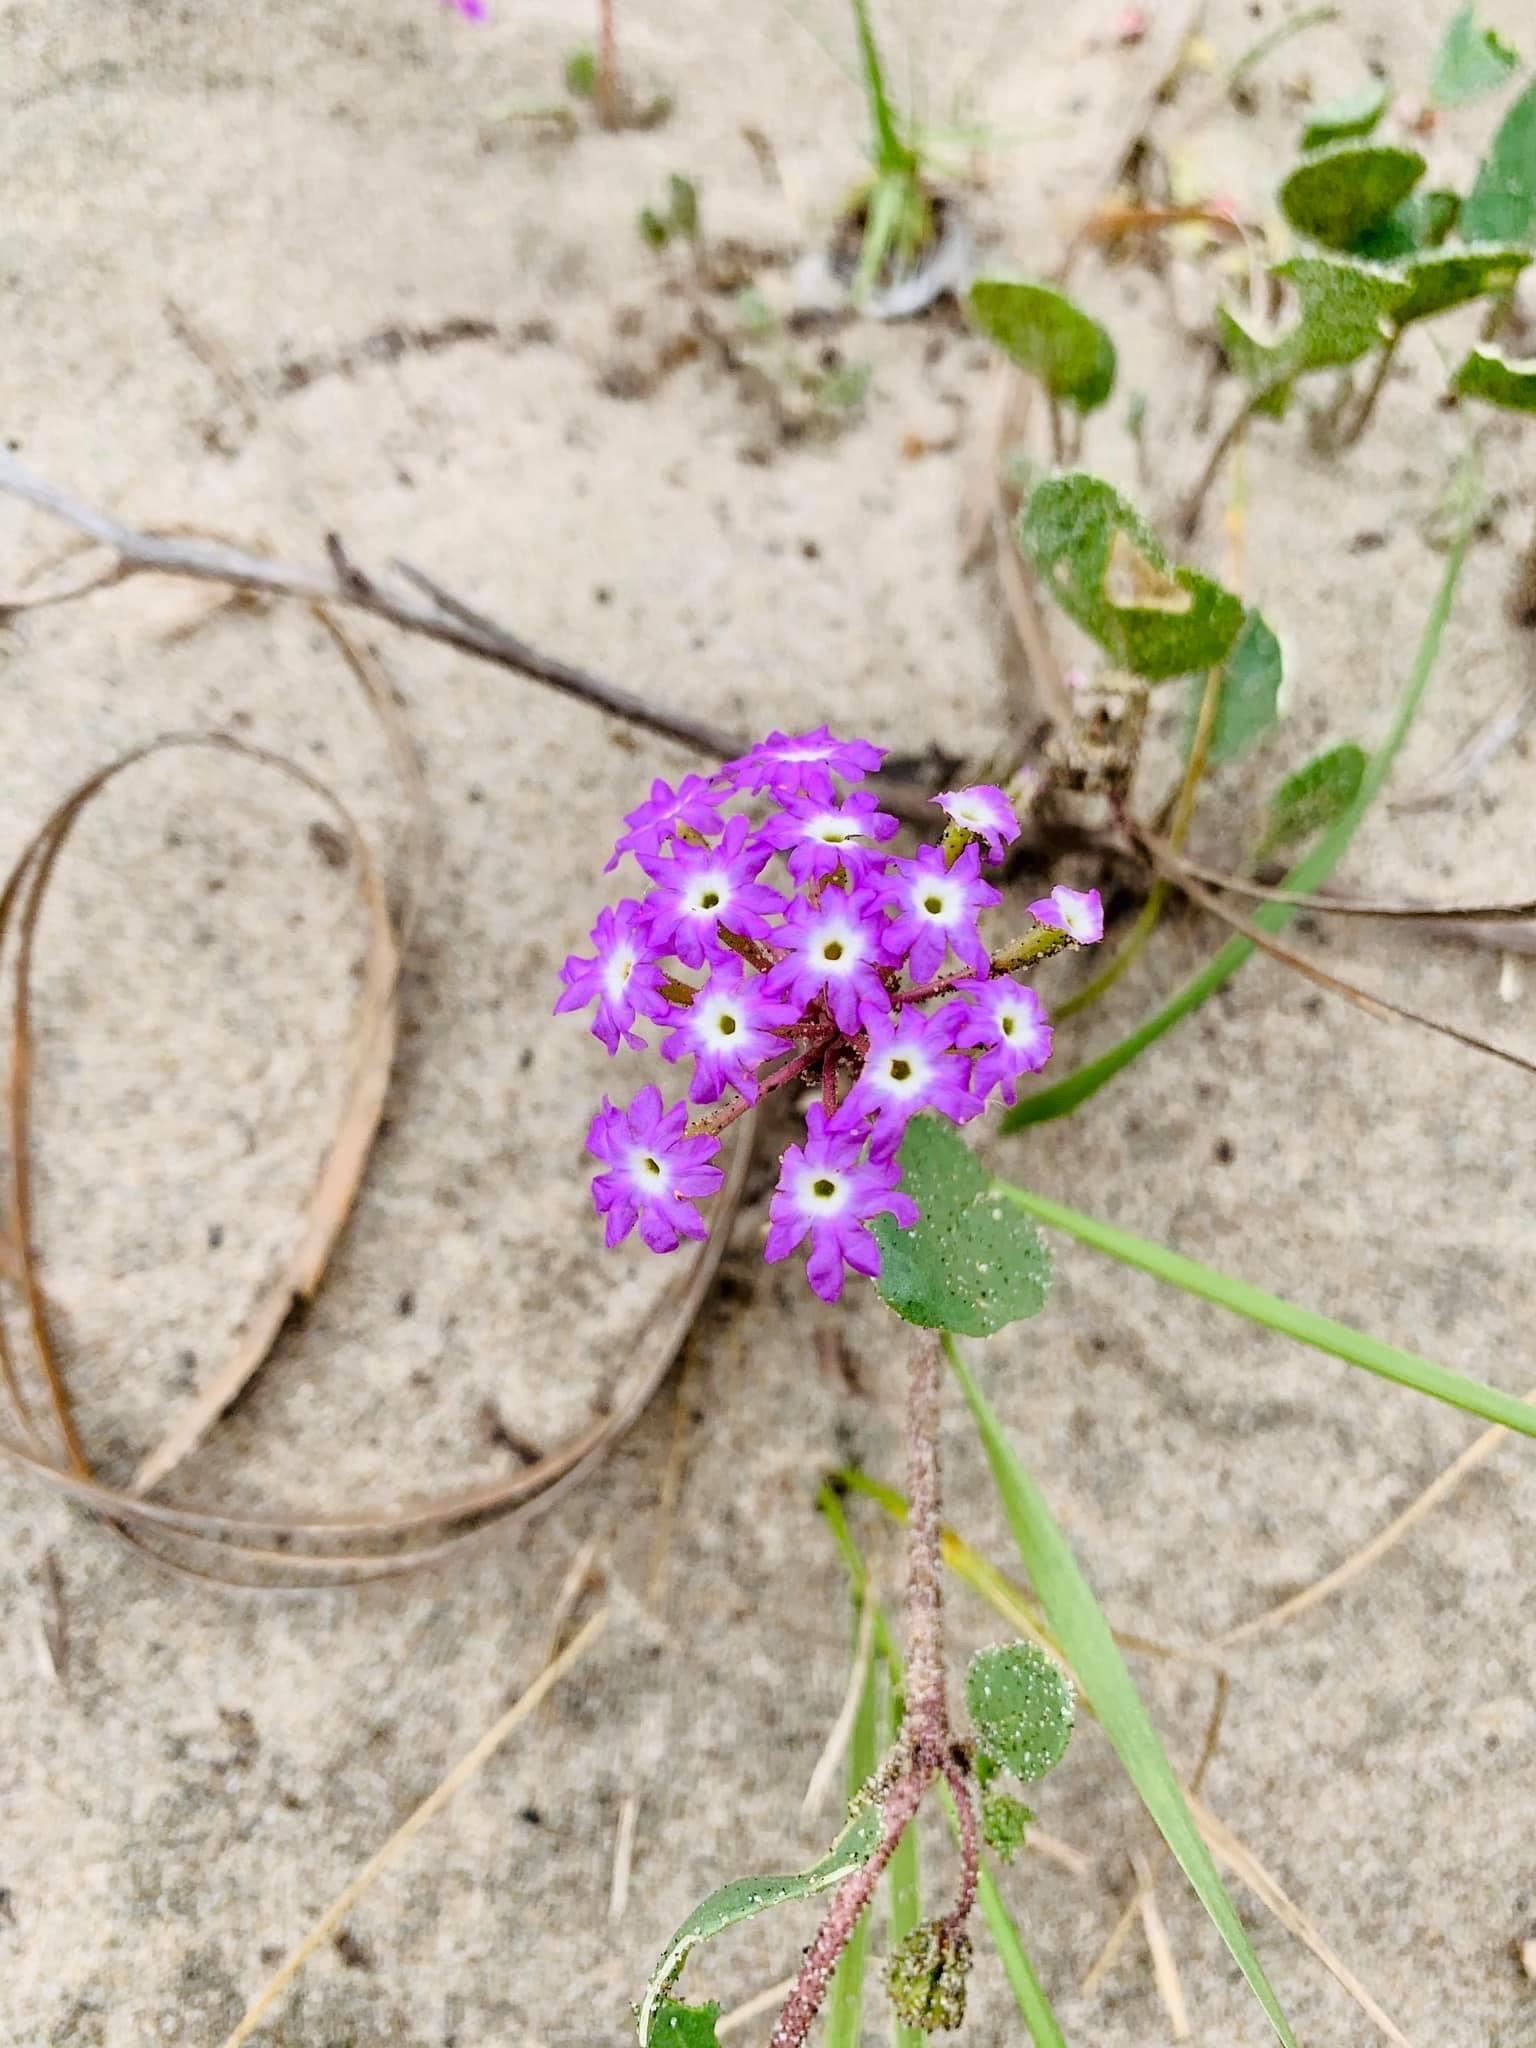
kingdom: Plantae
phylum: Tracheophyta
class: Magnoliopsida
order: Caryophyllales
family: Nyctaginaceae
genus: Abronia
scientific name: Abronia umbellata
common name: Sand-verbena
